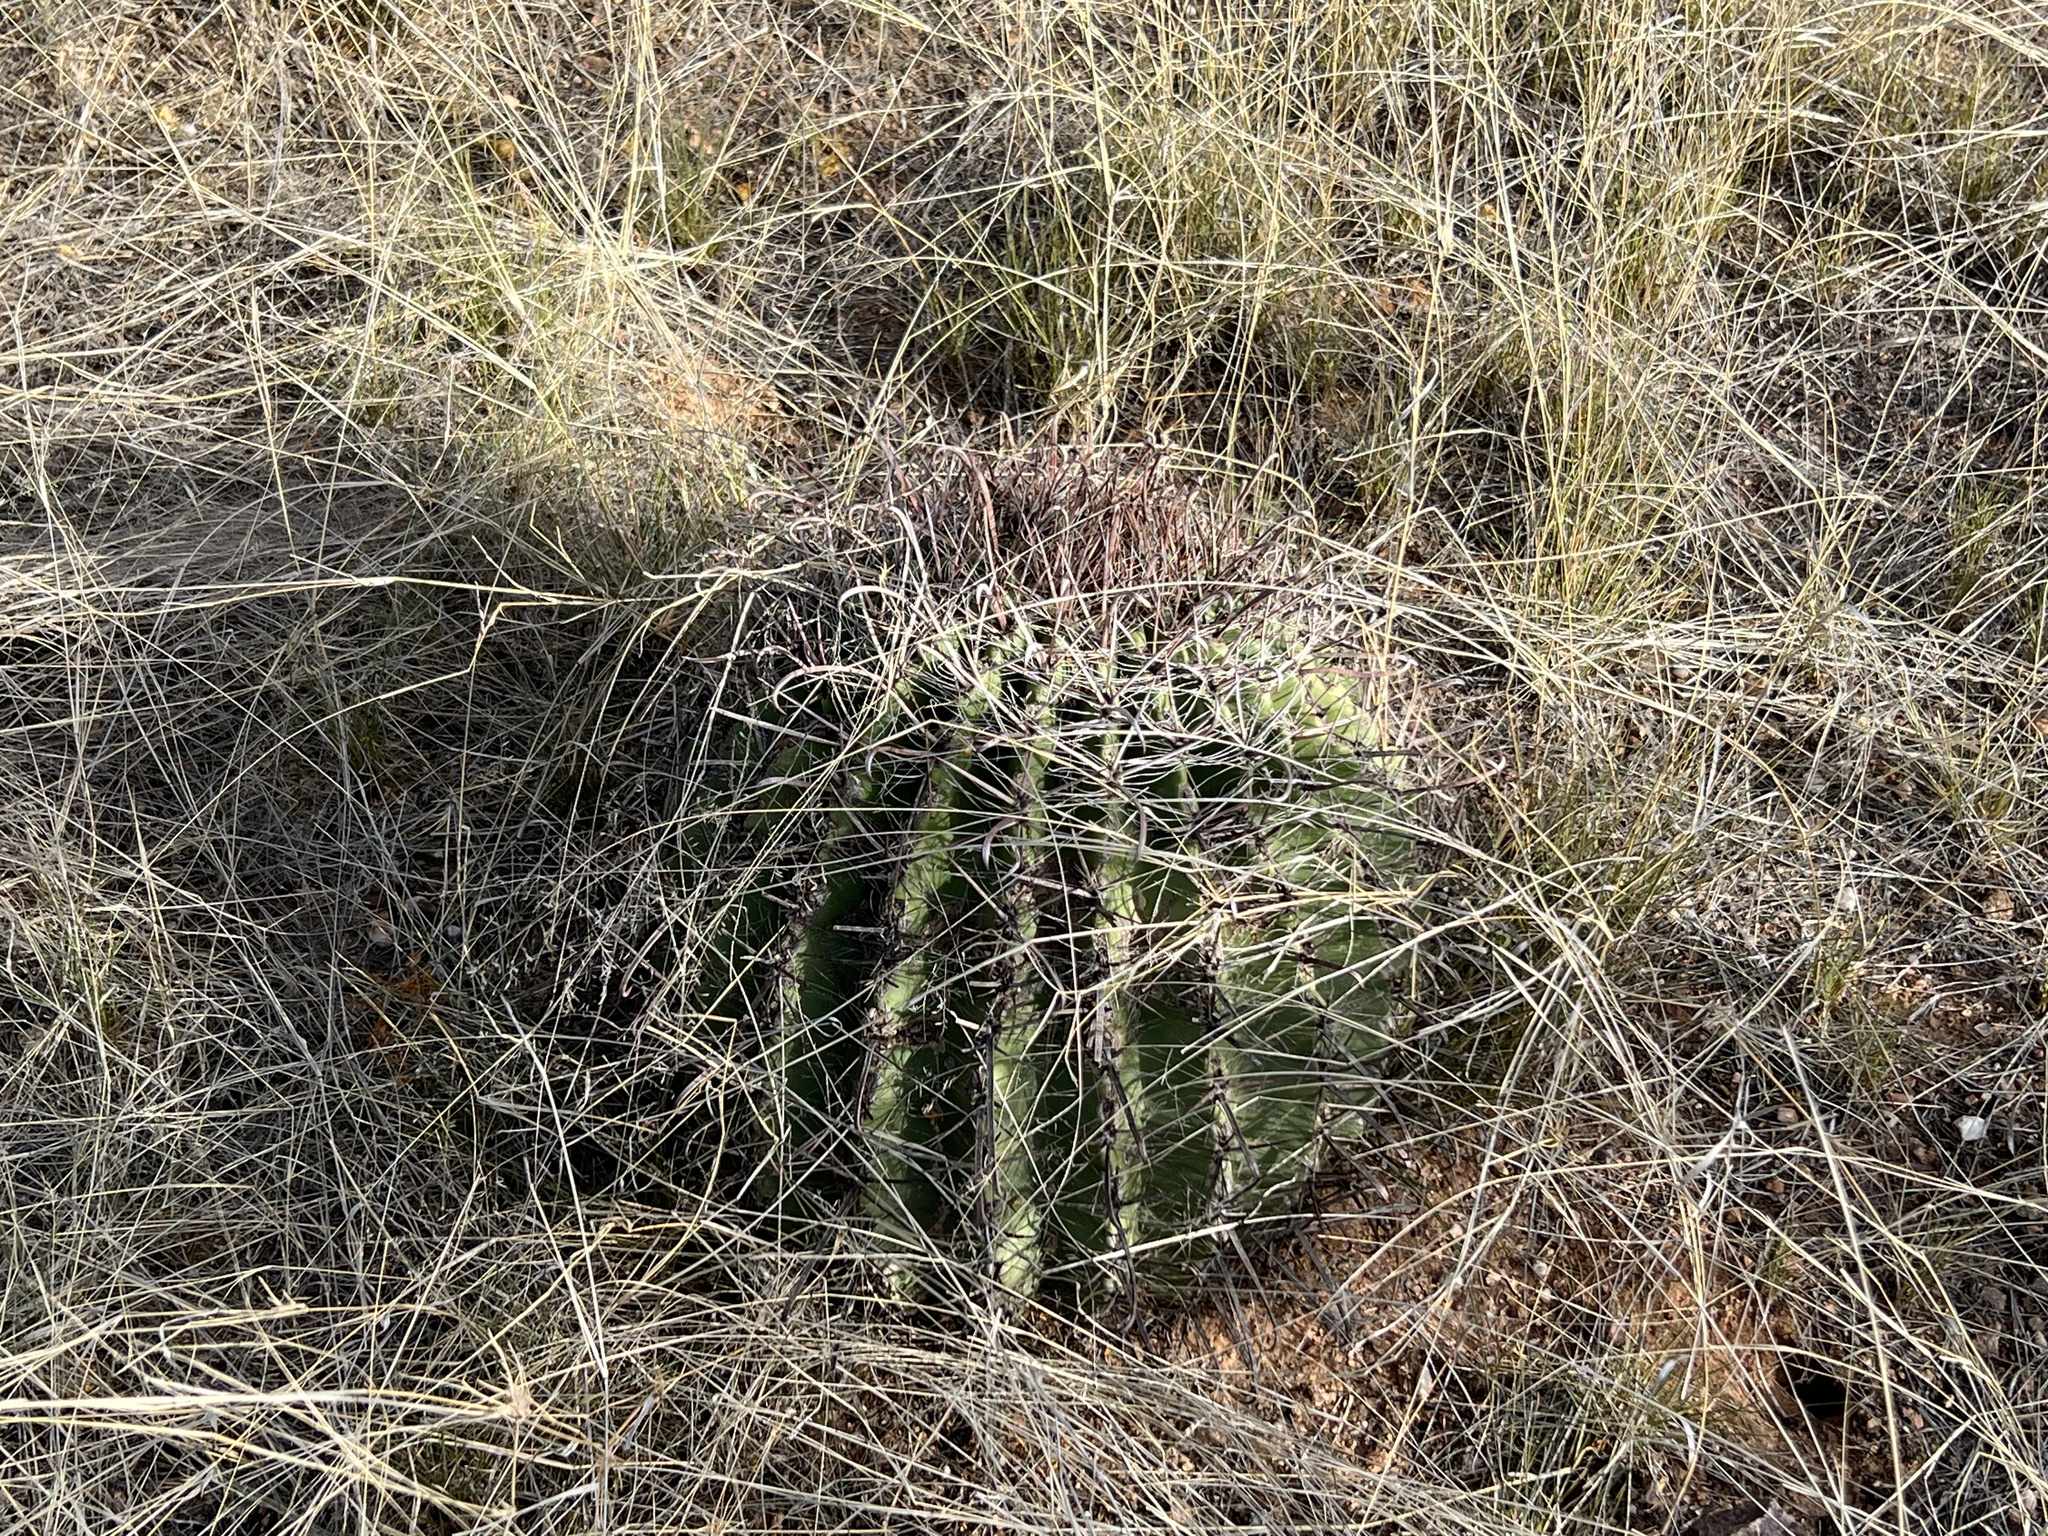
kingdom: Plantae
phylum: Tracheophyta
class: Magnoliopsida
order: Caryophyllales
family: Cactaceae
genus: Ferocactus
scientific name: Ferocactus wislizeni
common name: Candy barrel cactus
